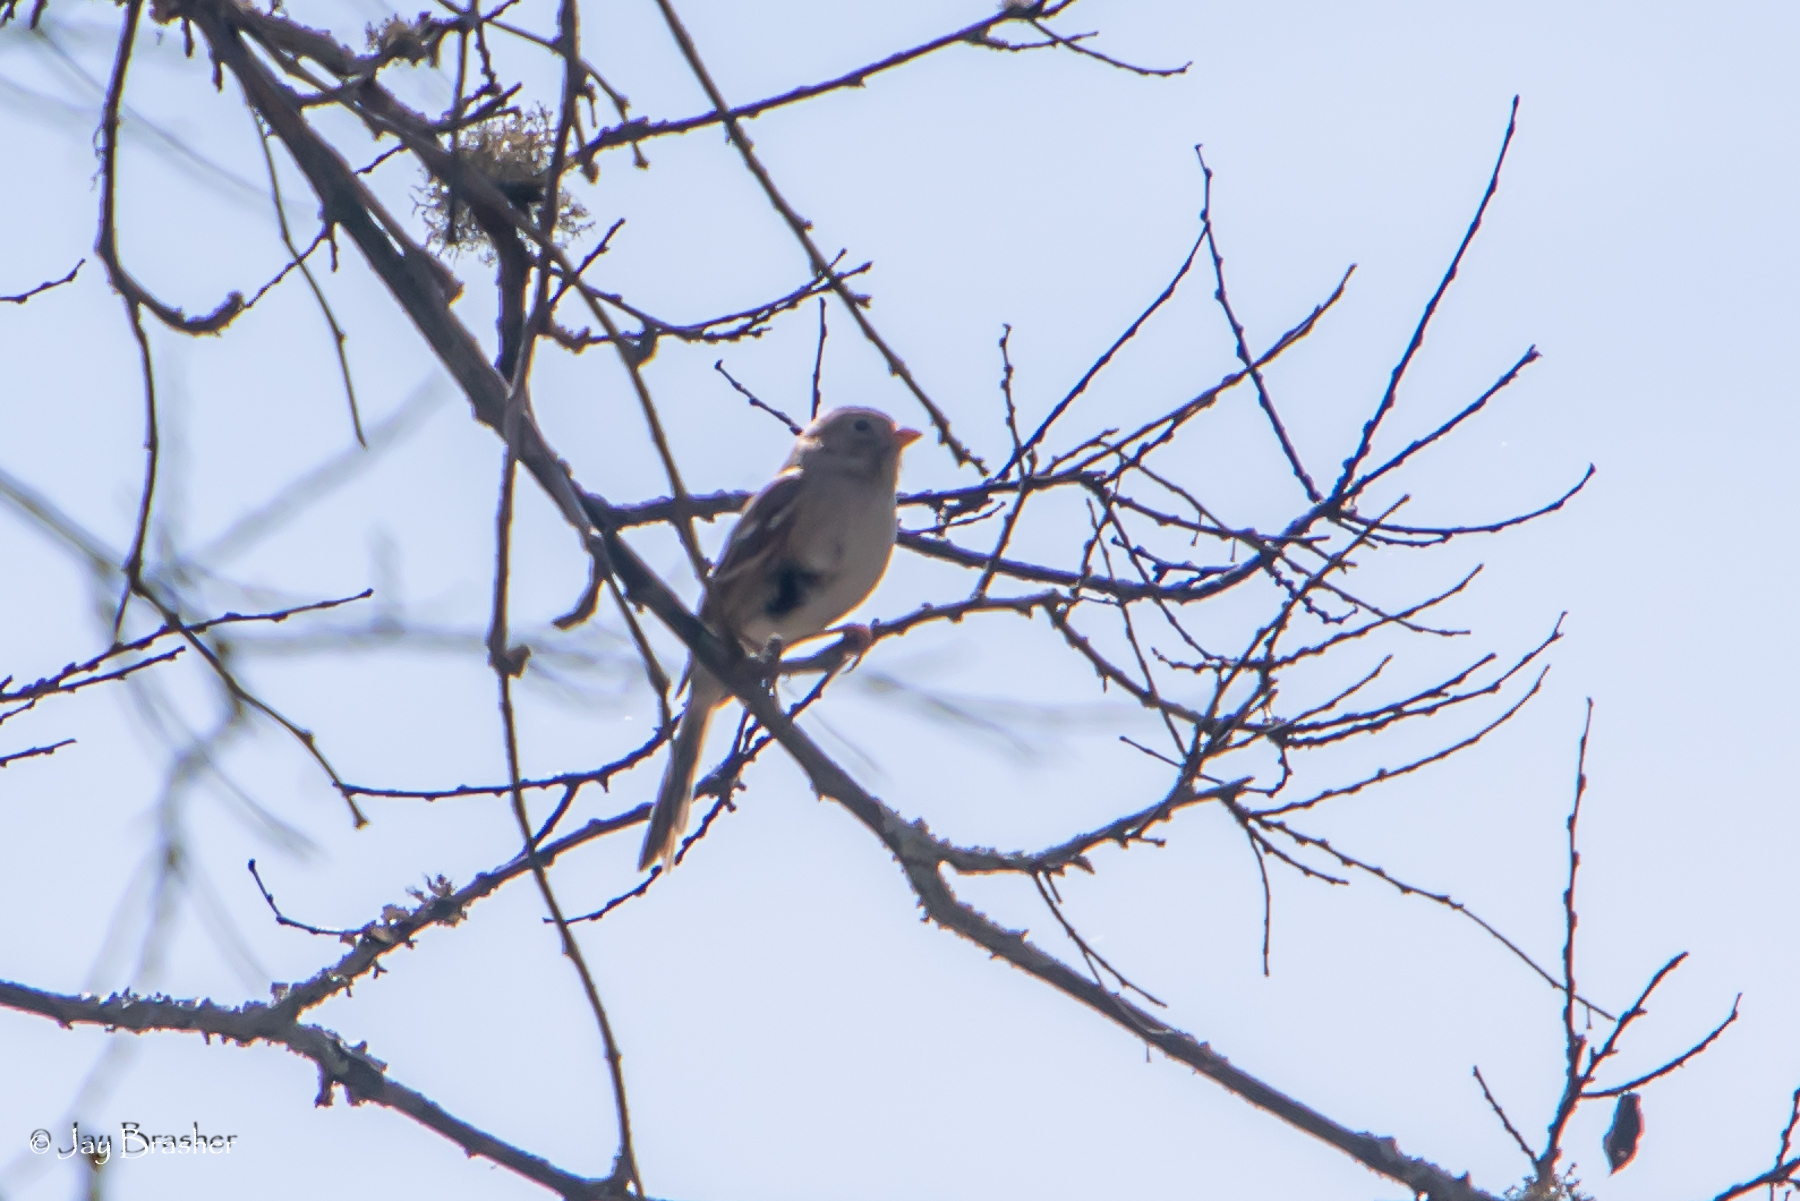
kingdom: Animalia
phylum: Chordata
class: Aves
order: Passeriformes
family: Passerellidae
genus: Spizella
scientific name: Spizella pusilla
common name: Field sparrow
